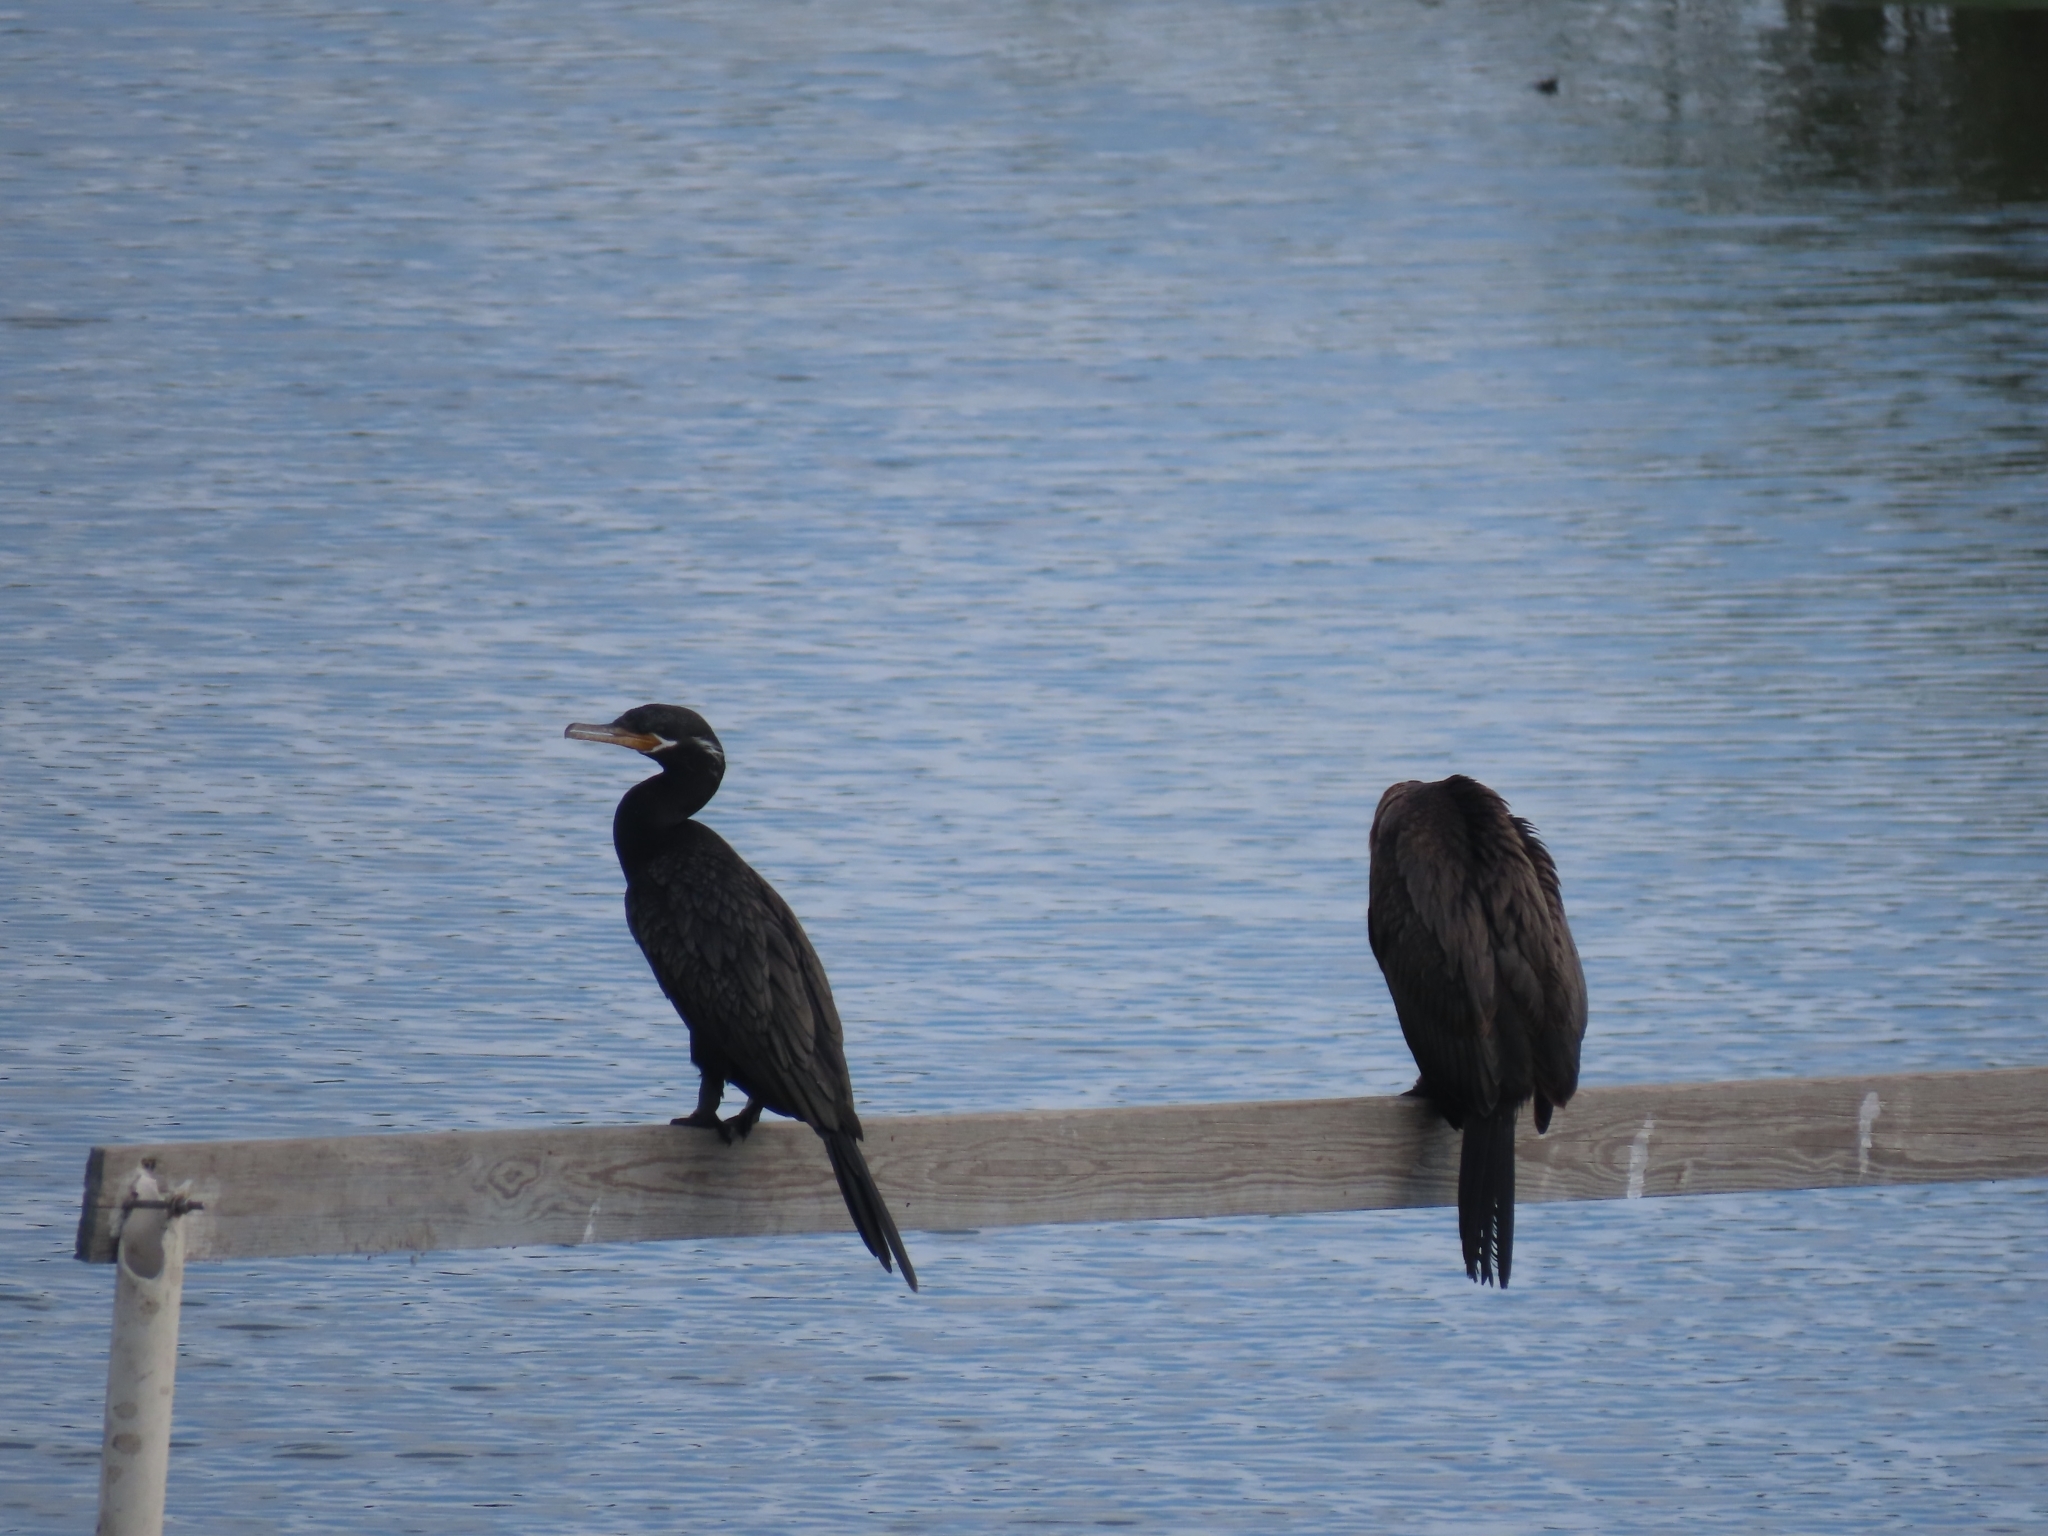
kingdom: Animalia
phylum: Chordata
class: Aves
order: Suliformes
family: Phalacrocoracidae
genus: Phalacrocorax
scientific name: Phalacrocorax brasilianus
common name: Neotropic cormorant
